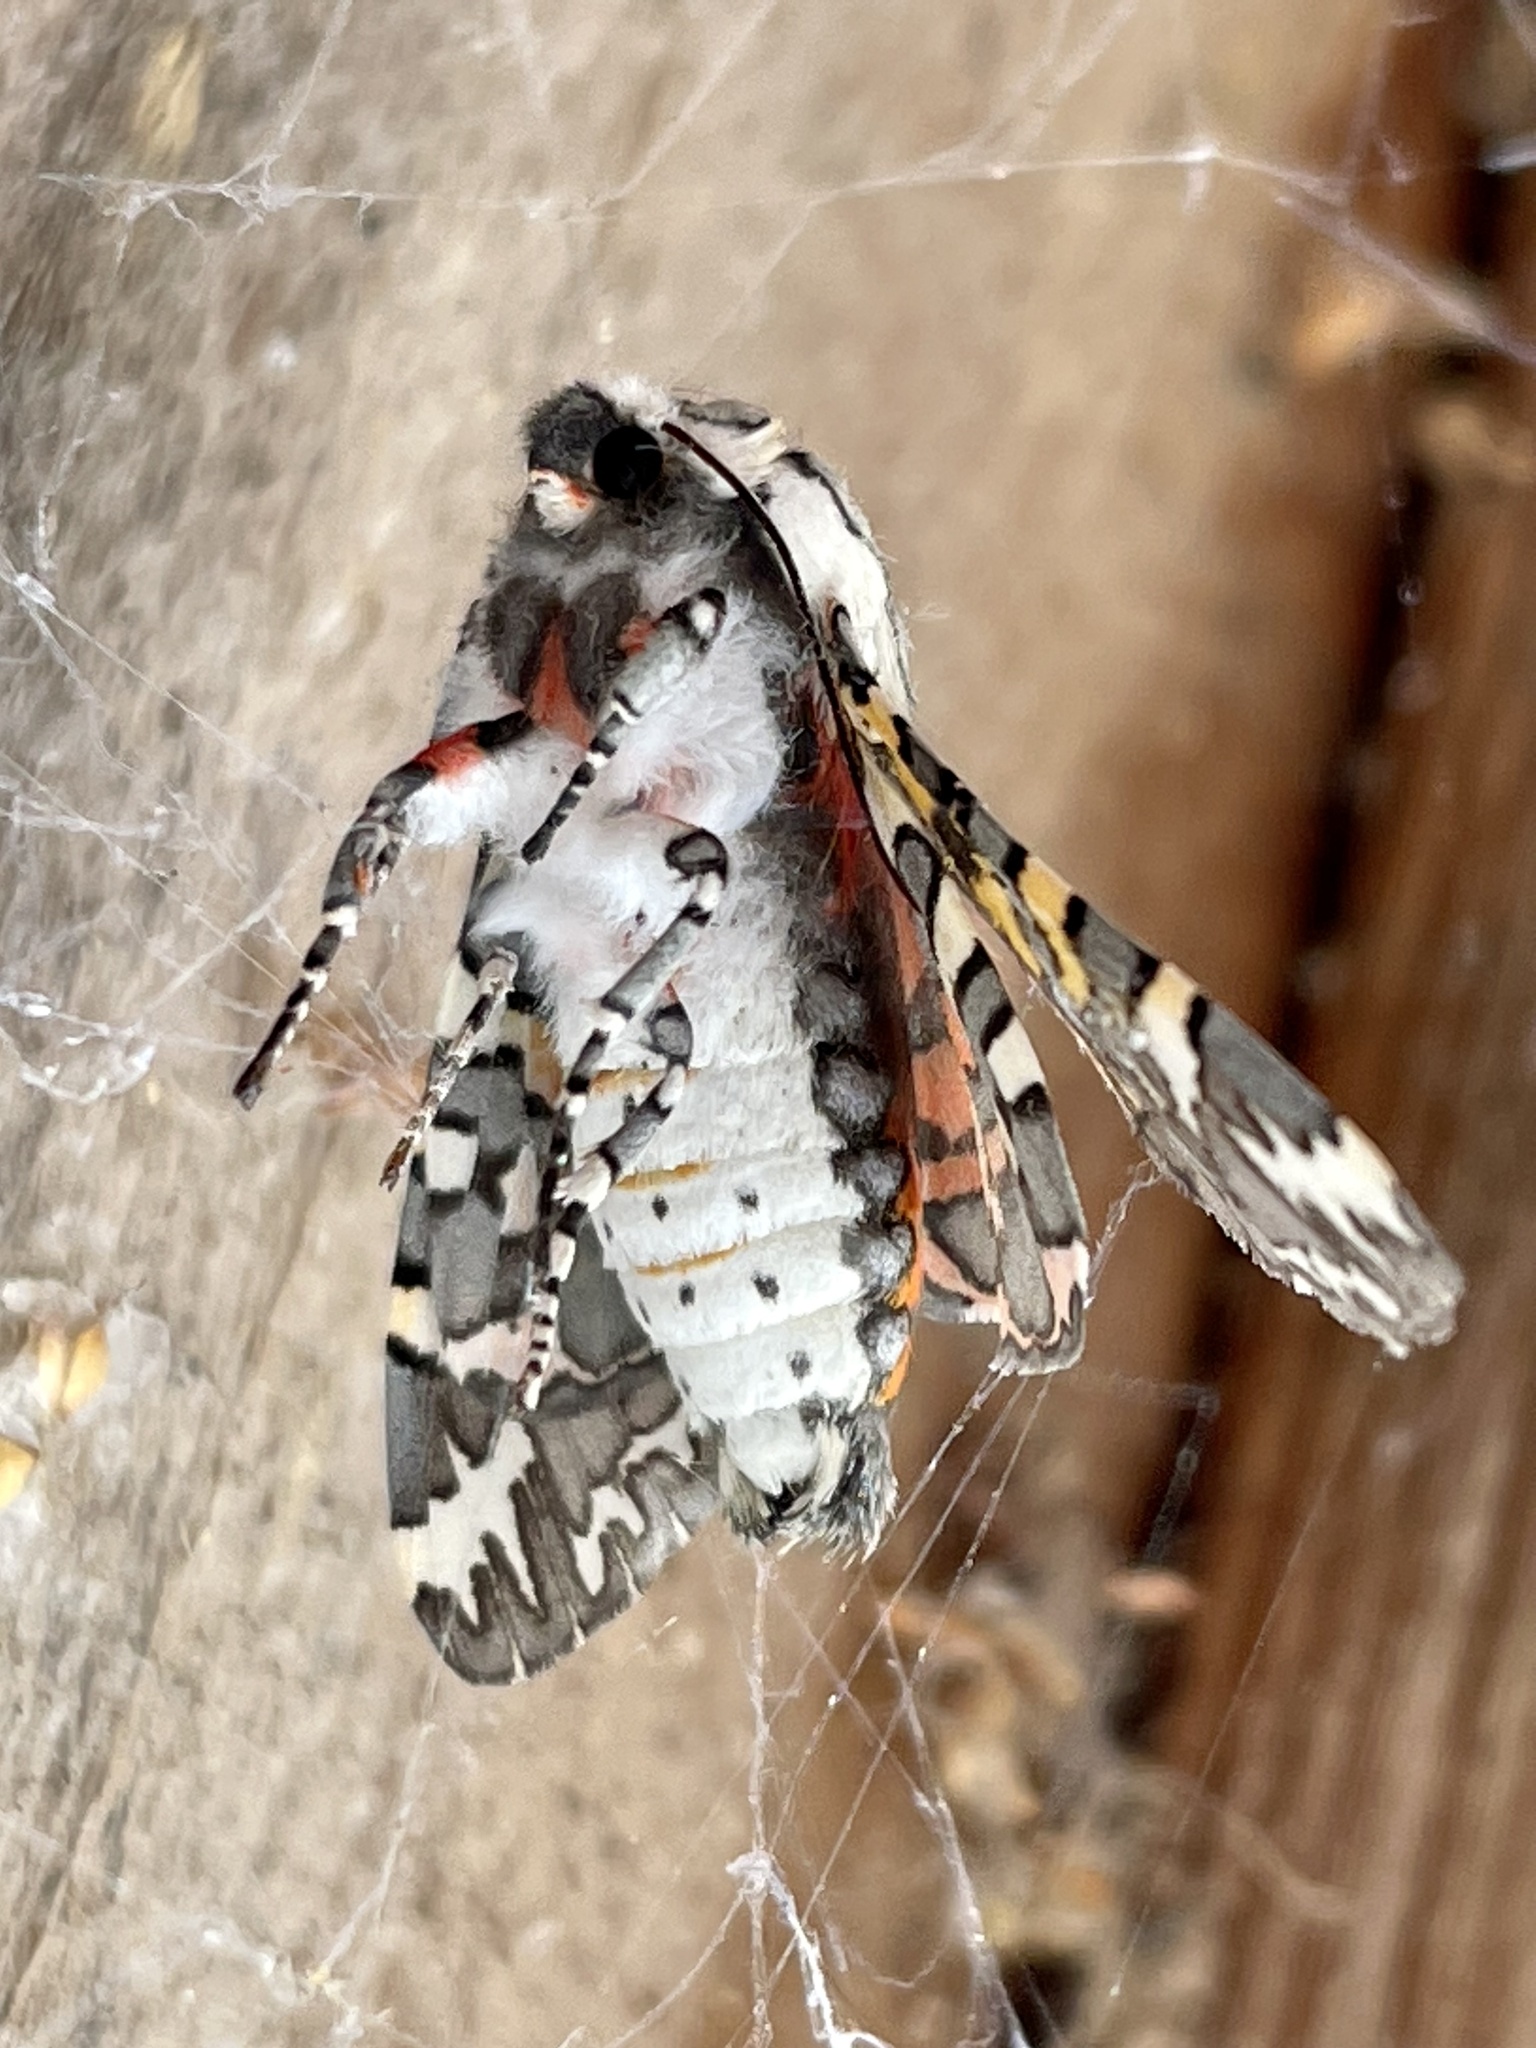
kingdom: Animalia
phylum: Arthropoda
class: Insecta
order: Lepidoptera
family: Erebidae
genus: Arachnis
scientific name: Arachnis picta
